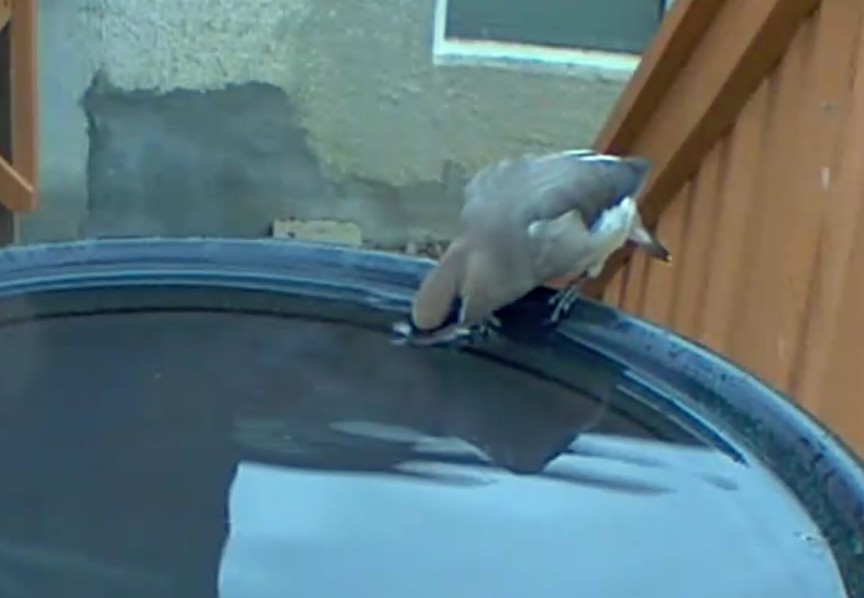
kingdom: Animalia
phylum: Chordata
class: Aves
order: Passeriformes
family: Bombycillidae
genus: Bombycilla
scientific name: Bombycilla cedrorum
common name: Cedar waxwing
